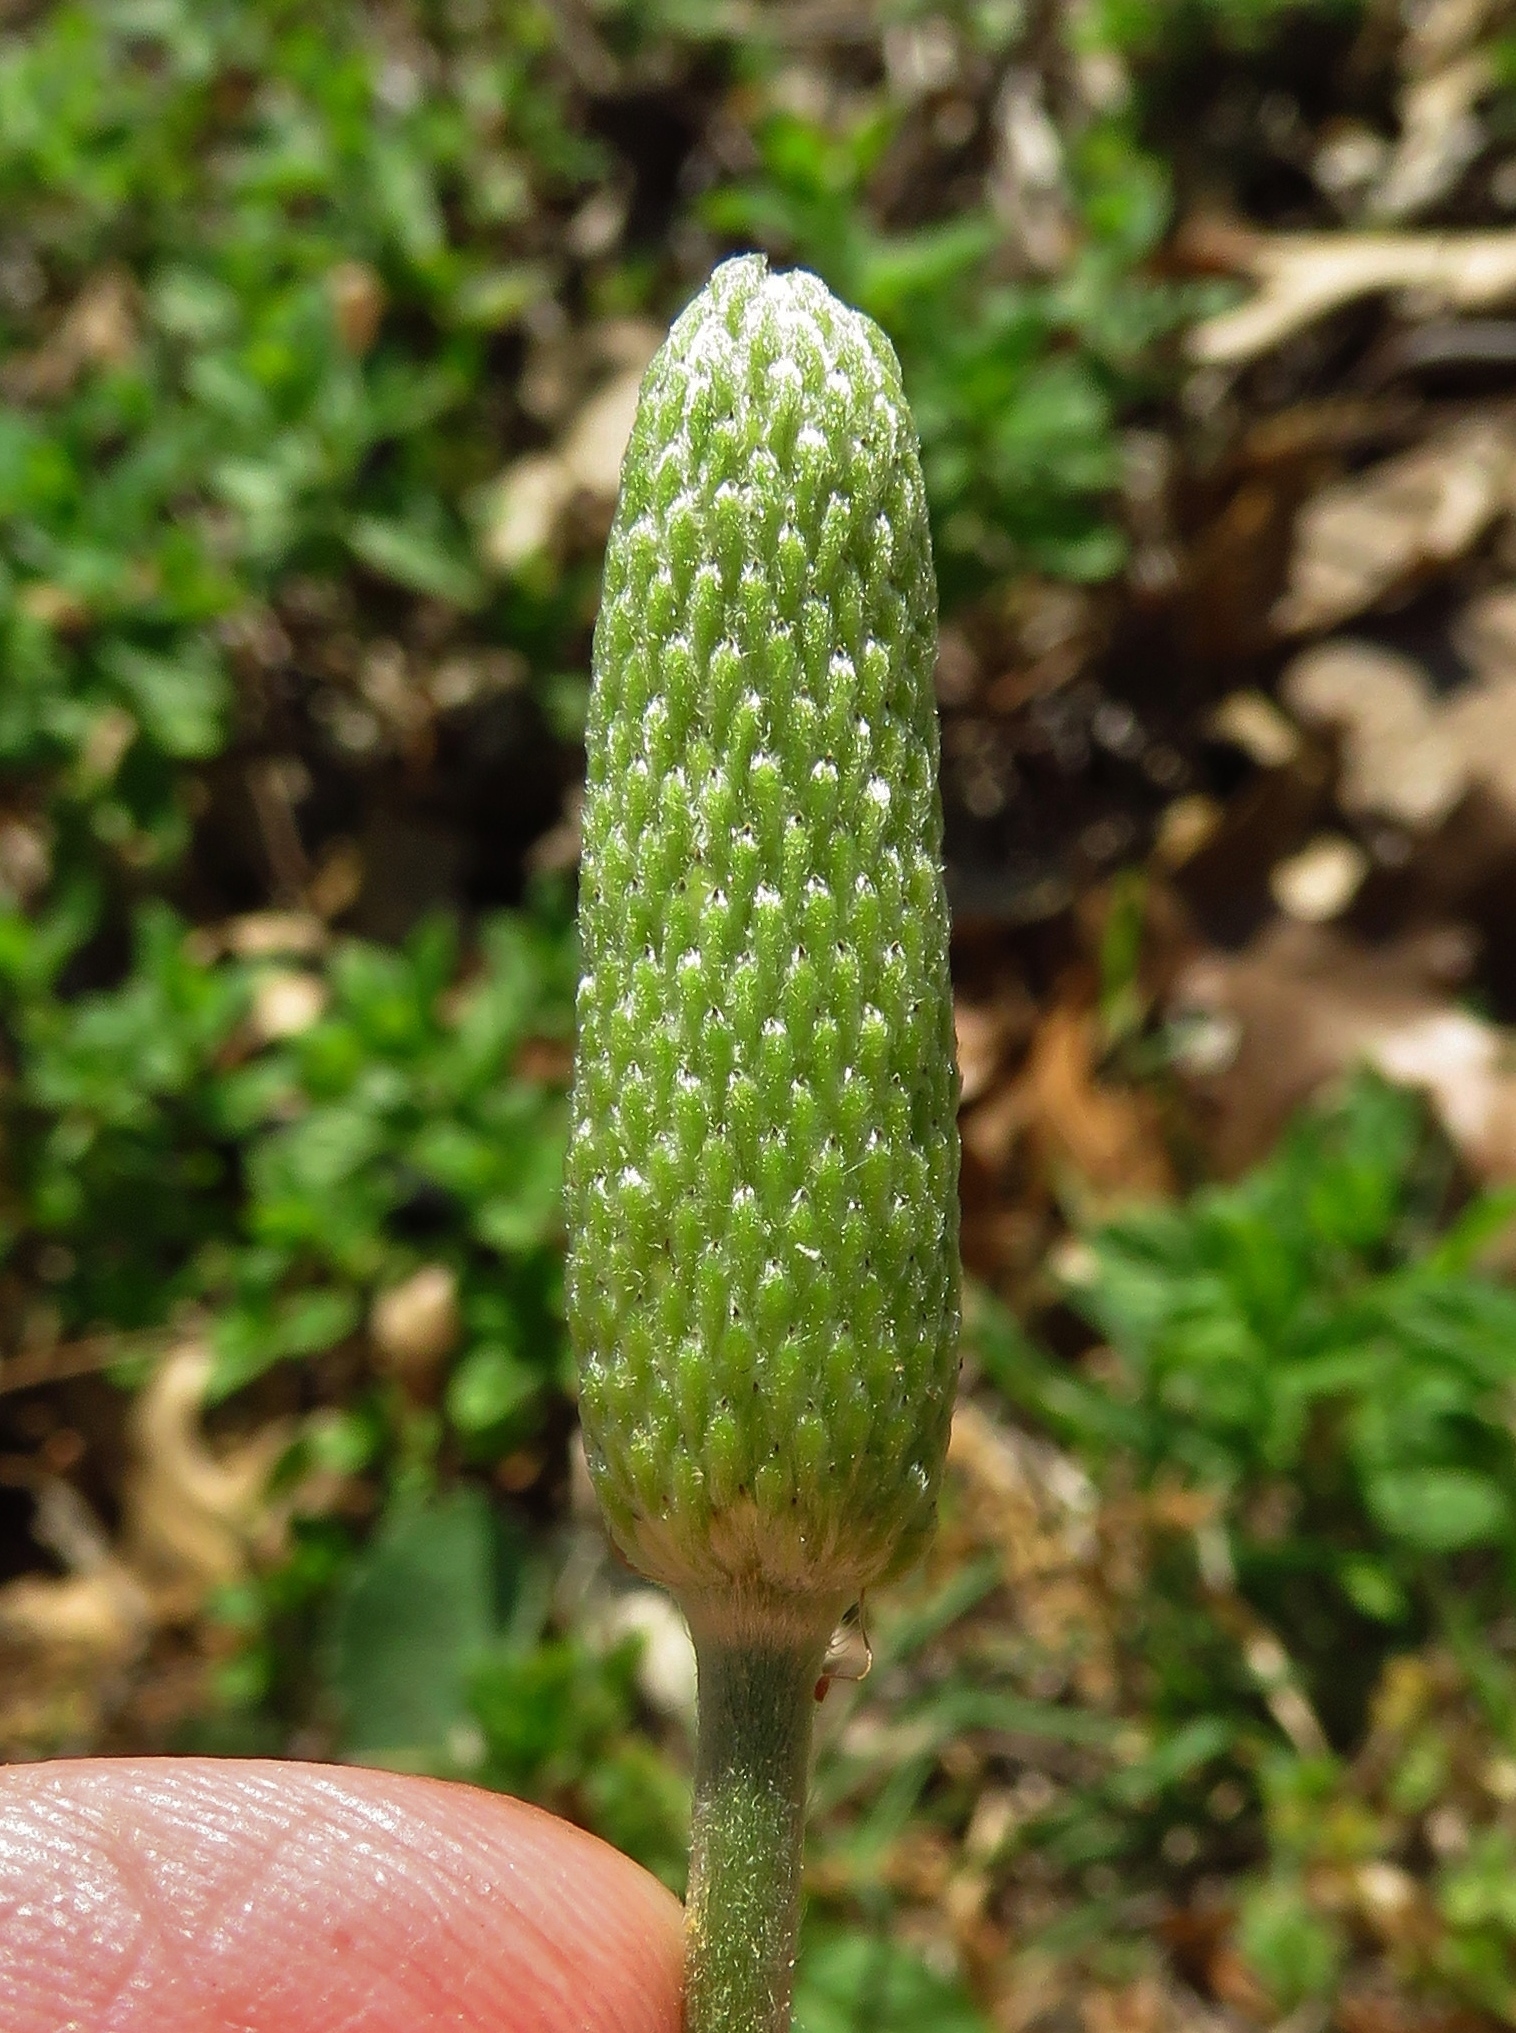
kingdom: Plantae
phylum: Tracheophyta
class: Magnoliopsida
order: Ranunculales
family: Ranunculaceae
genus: Anemone
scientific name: Anemone berlandieri
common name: Ten-petal anemone
